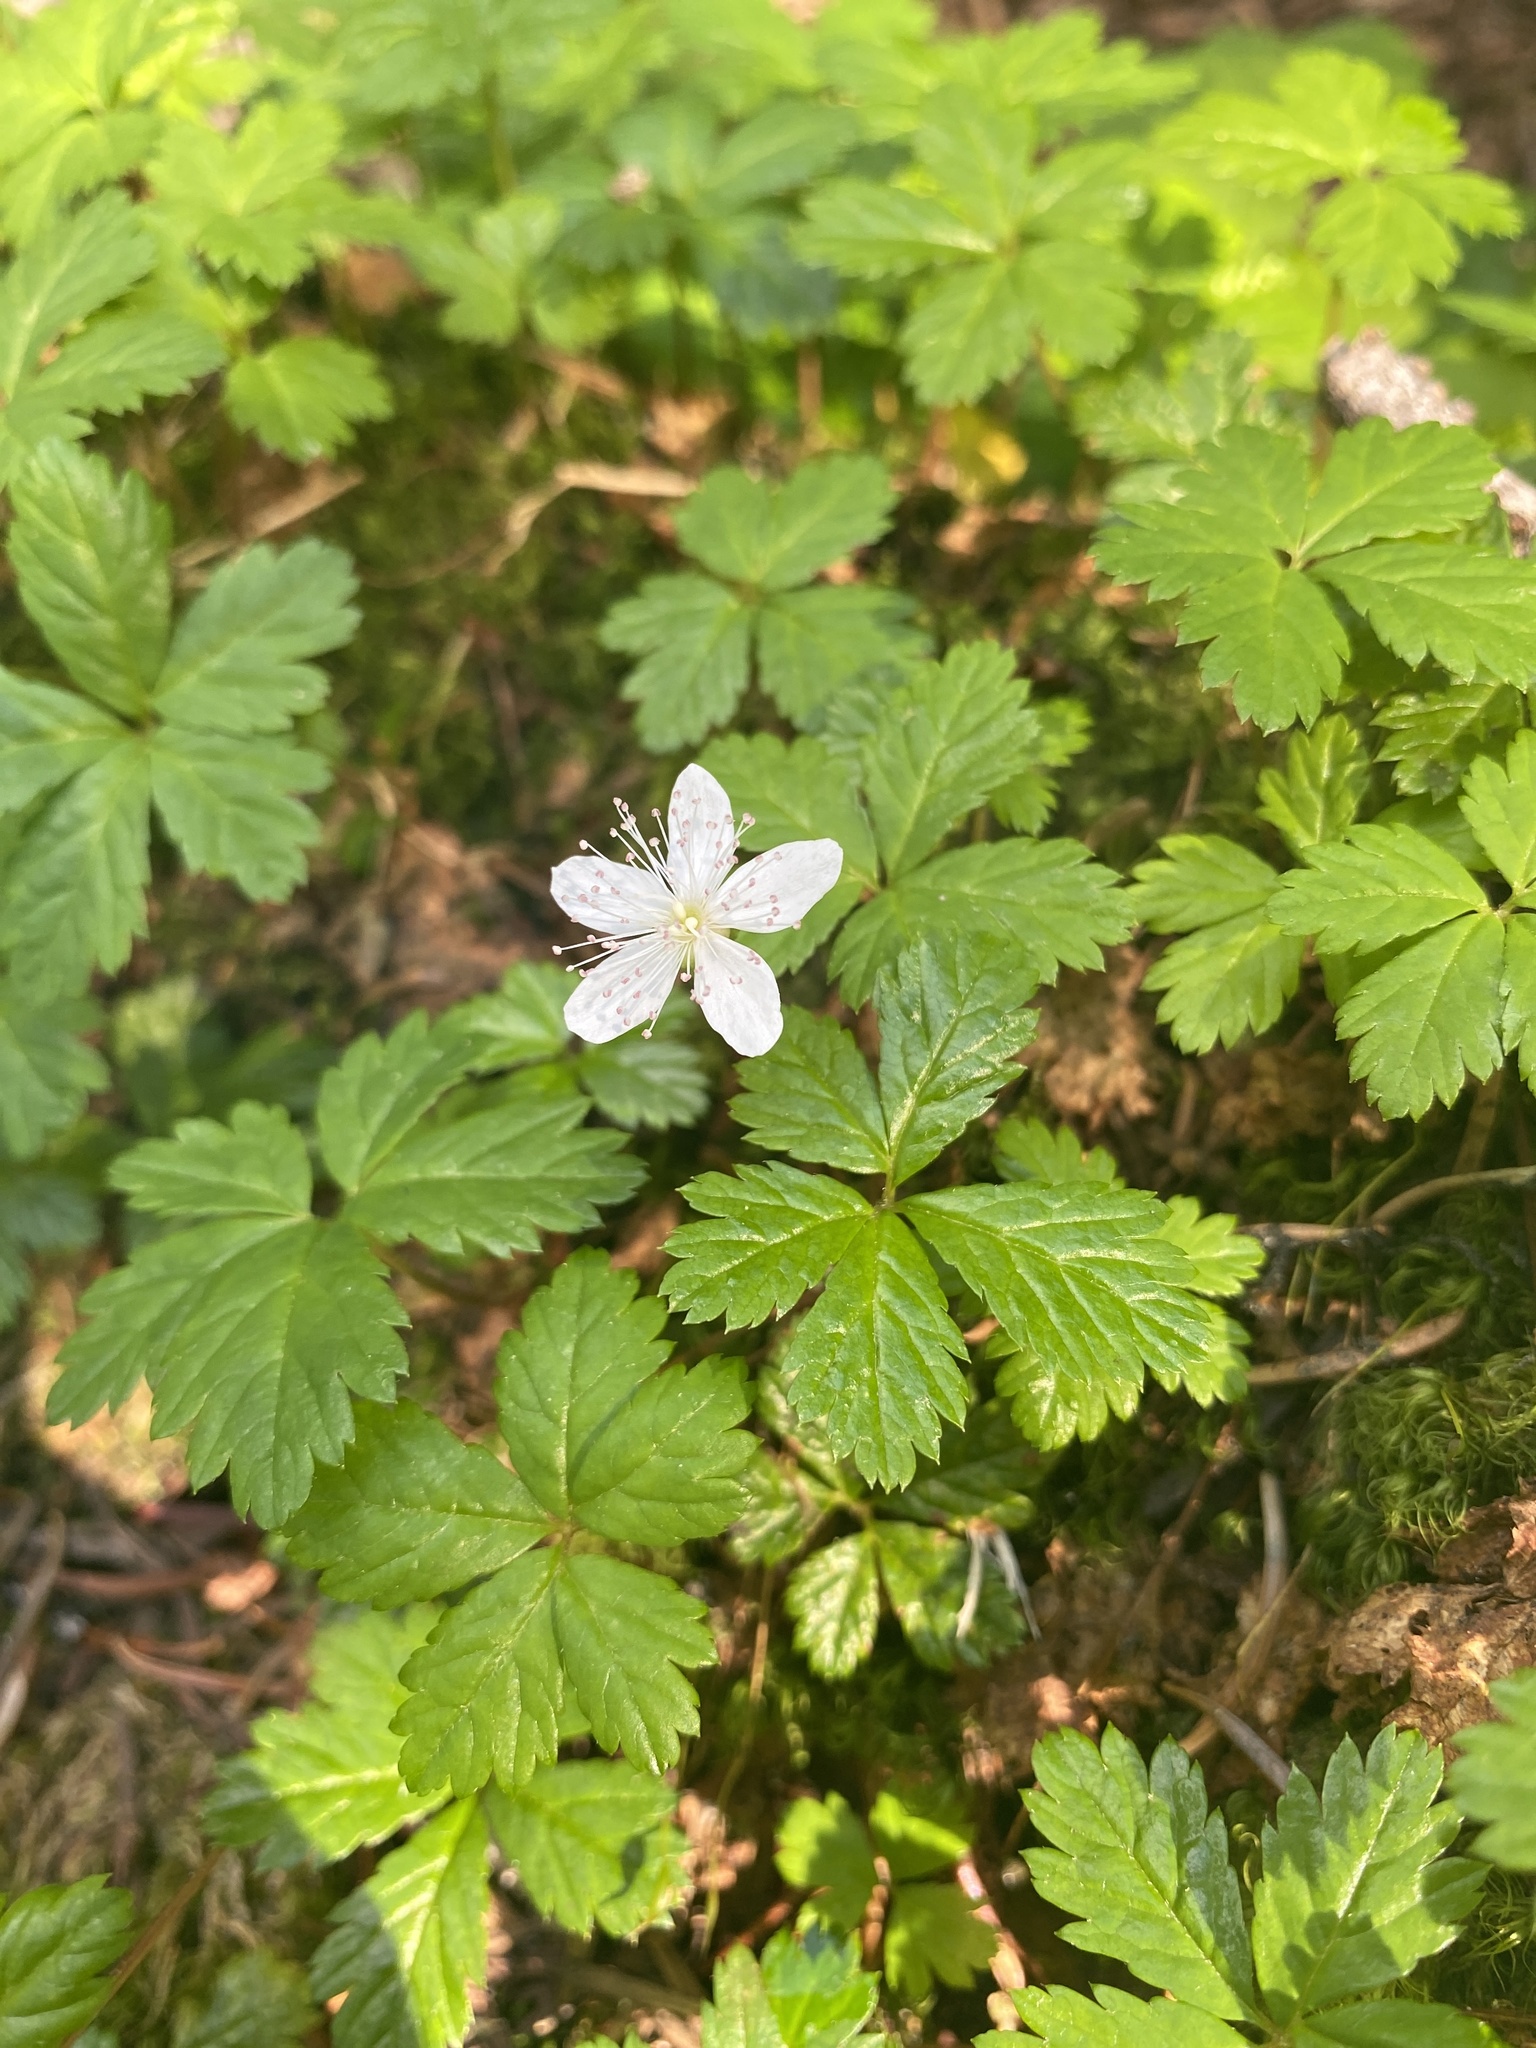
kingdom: Plantae
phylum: Tracheophyta
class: Magnoliopsida
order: Rosales
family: Rosaceae
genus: Rubus
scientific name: Rubus pedatus
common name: Creeping raspberry
